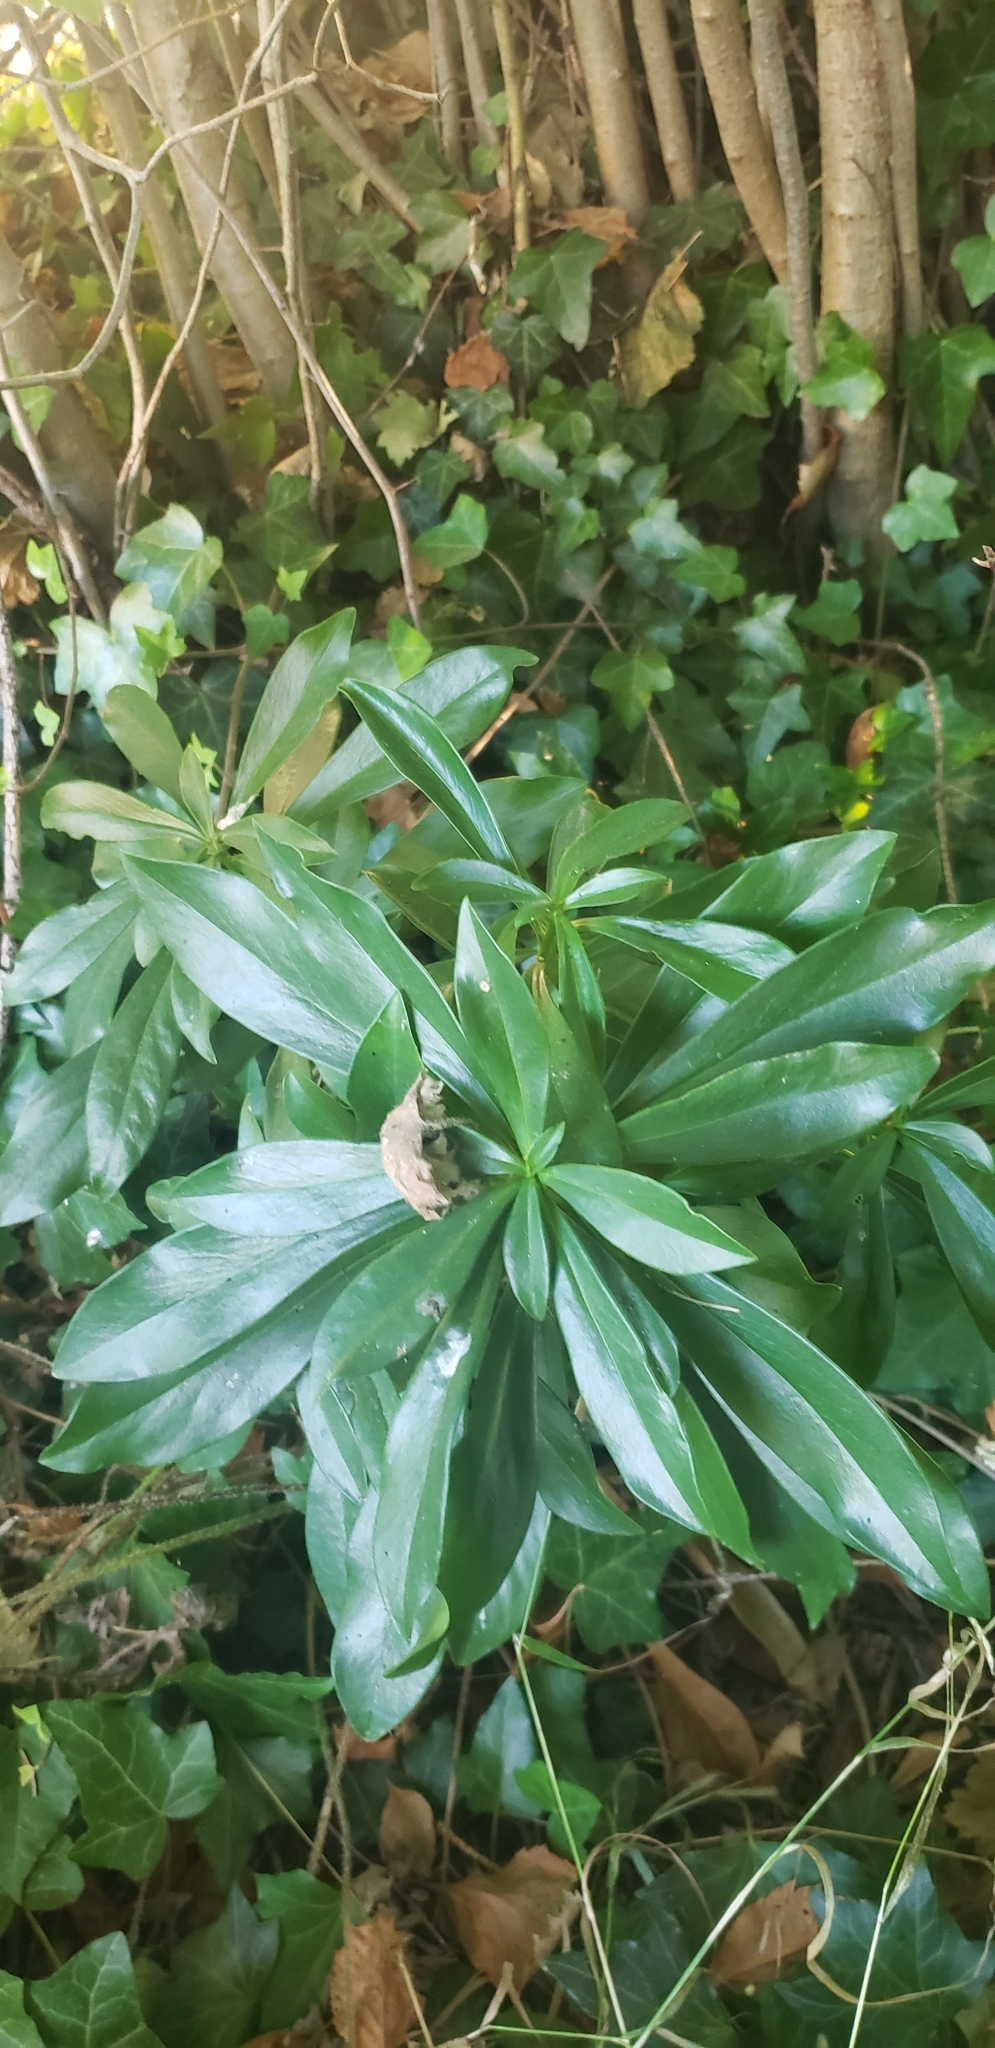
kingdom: Plantae
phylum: Tracheophyta
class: Magnoliopsida
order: Malvales
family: Thymelaeaceae
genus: Daphne
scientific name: Daphne laureola
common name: Spurge-laurel
